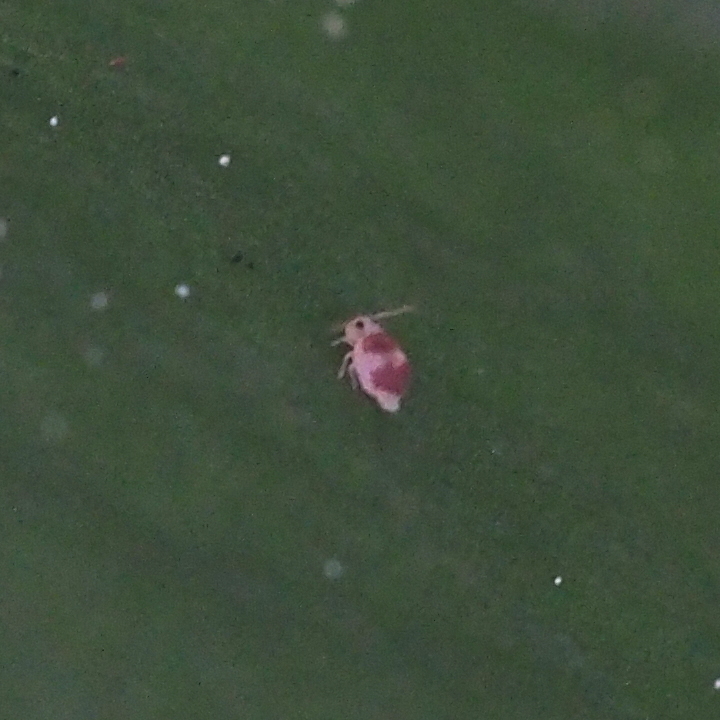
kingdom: Animalia
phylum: Arthropoda
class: Collembola
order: Symphypleona
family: Bourletiellidae
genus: Deuterosminthurus
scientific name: Deuterosminthurus bicinctus
